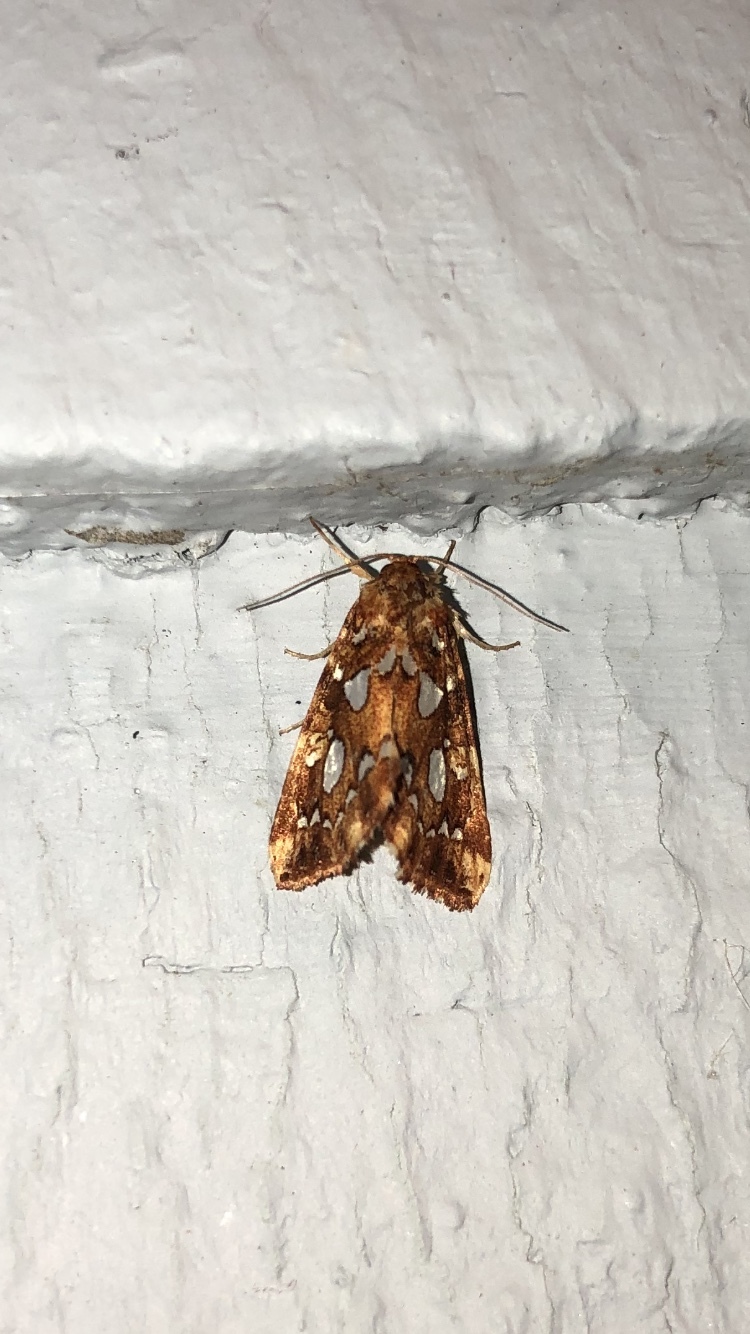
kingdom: Animalia
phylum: Arthropoda
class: Insecta
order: Lepidoptera
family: Noctuidae
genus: Callopistria
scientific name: Callopistria cordata
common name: Silver-spotted fern moth
